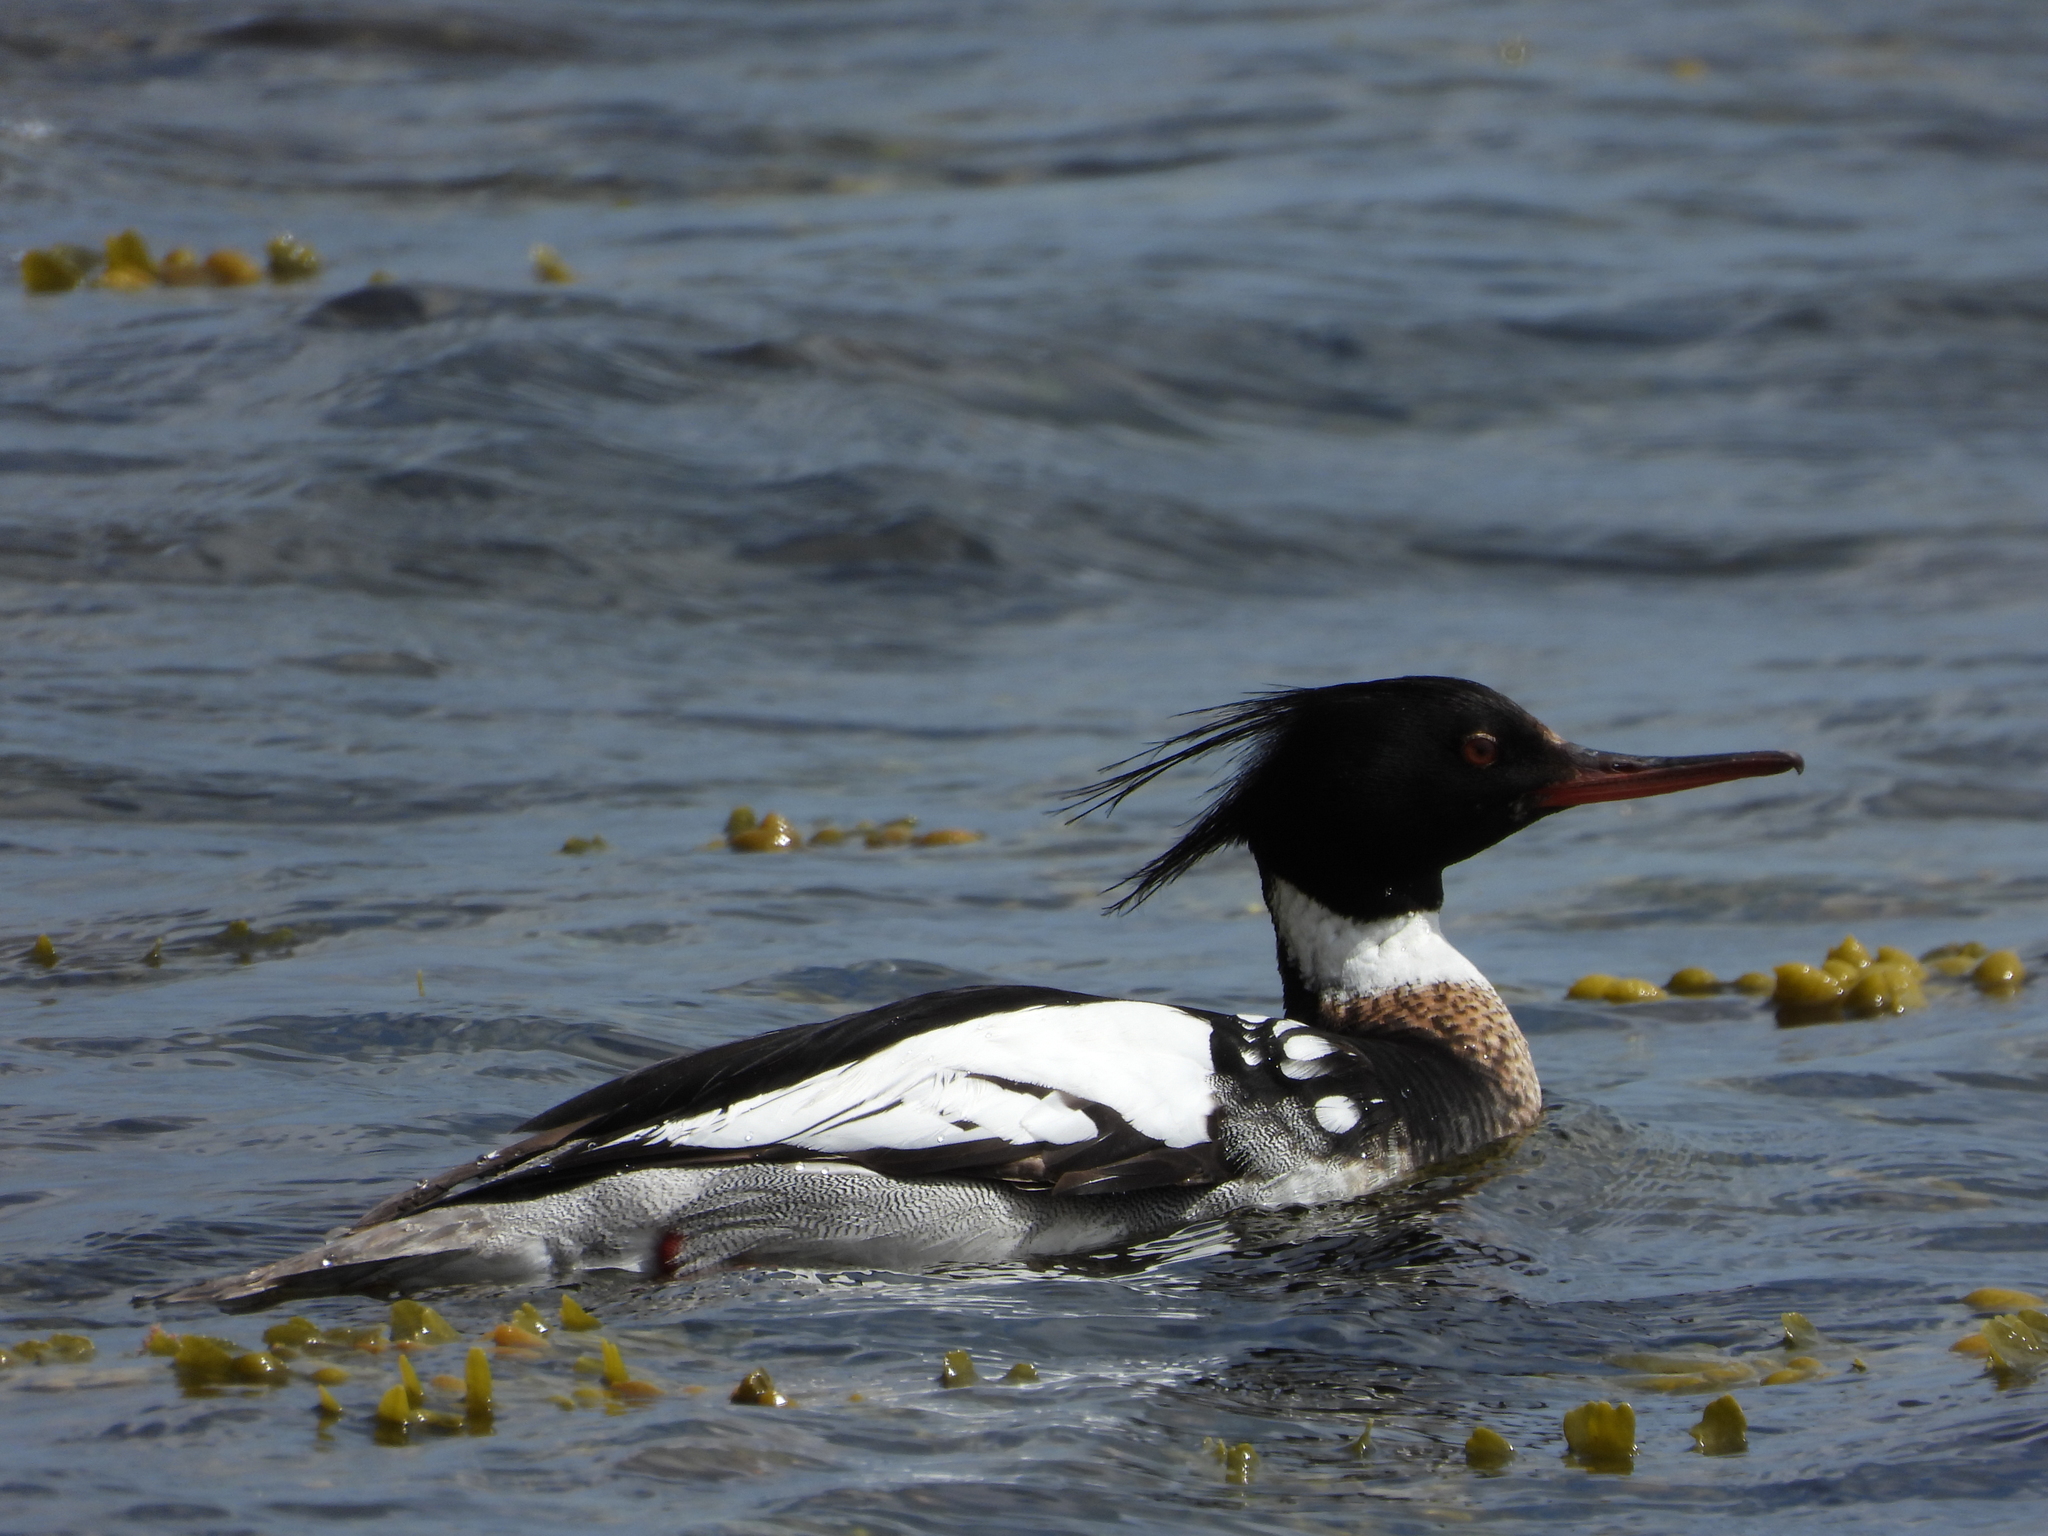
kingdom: Animalia
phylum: Chordata
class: Aves
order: Anseriformes
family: Anatidae
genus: Mergus
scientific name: Mergus serrator
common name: Red-breasted merganser
